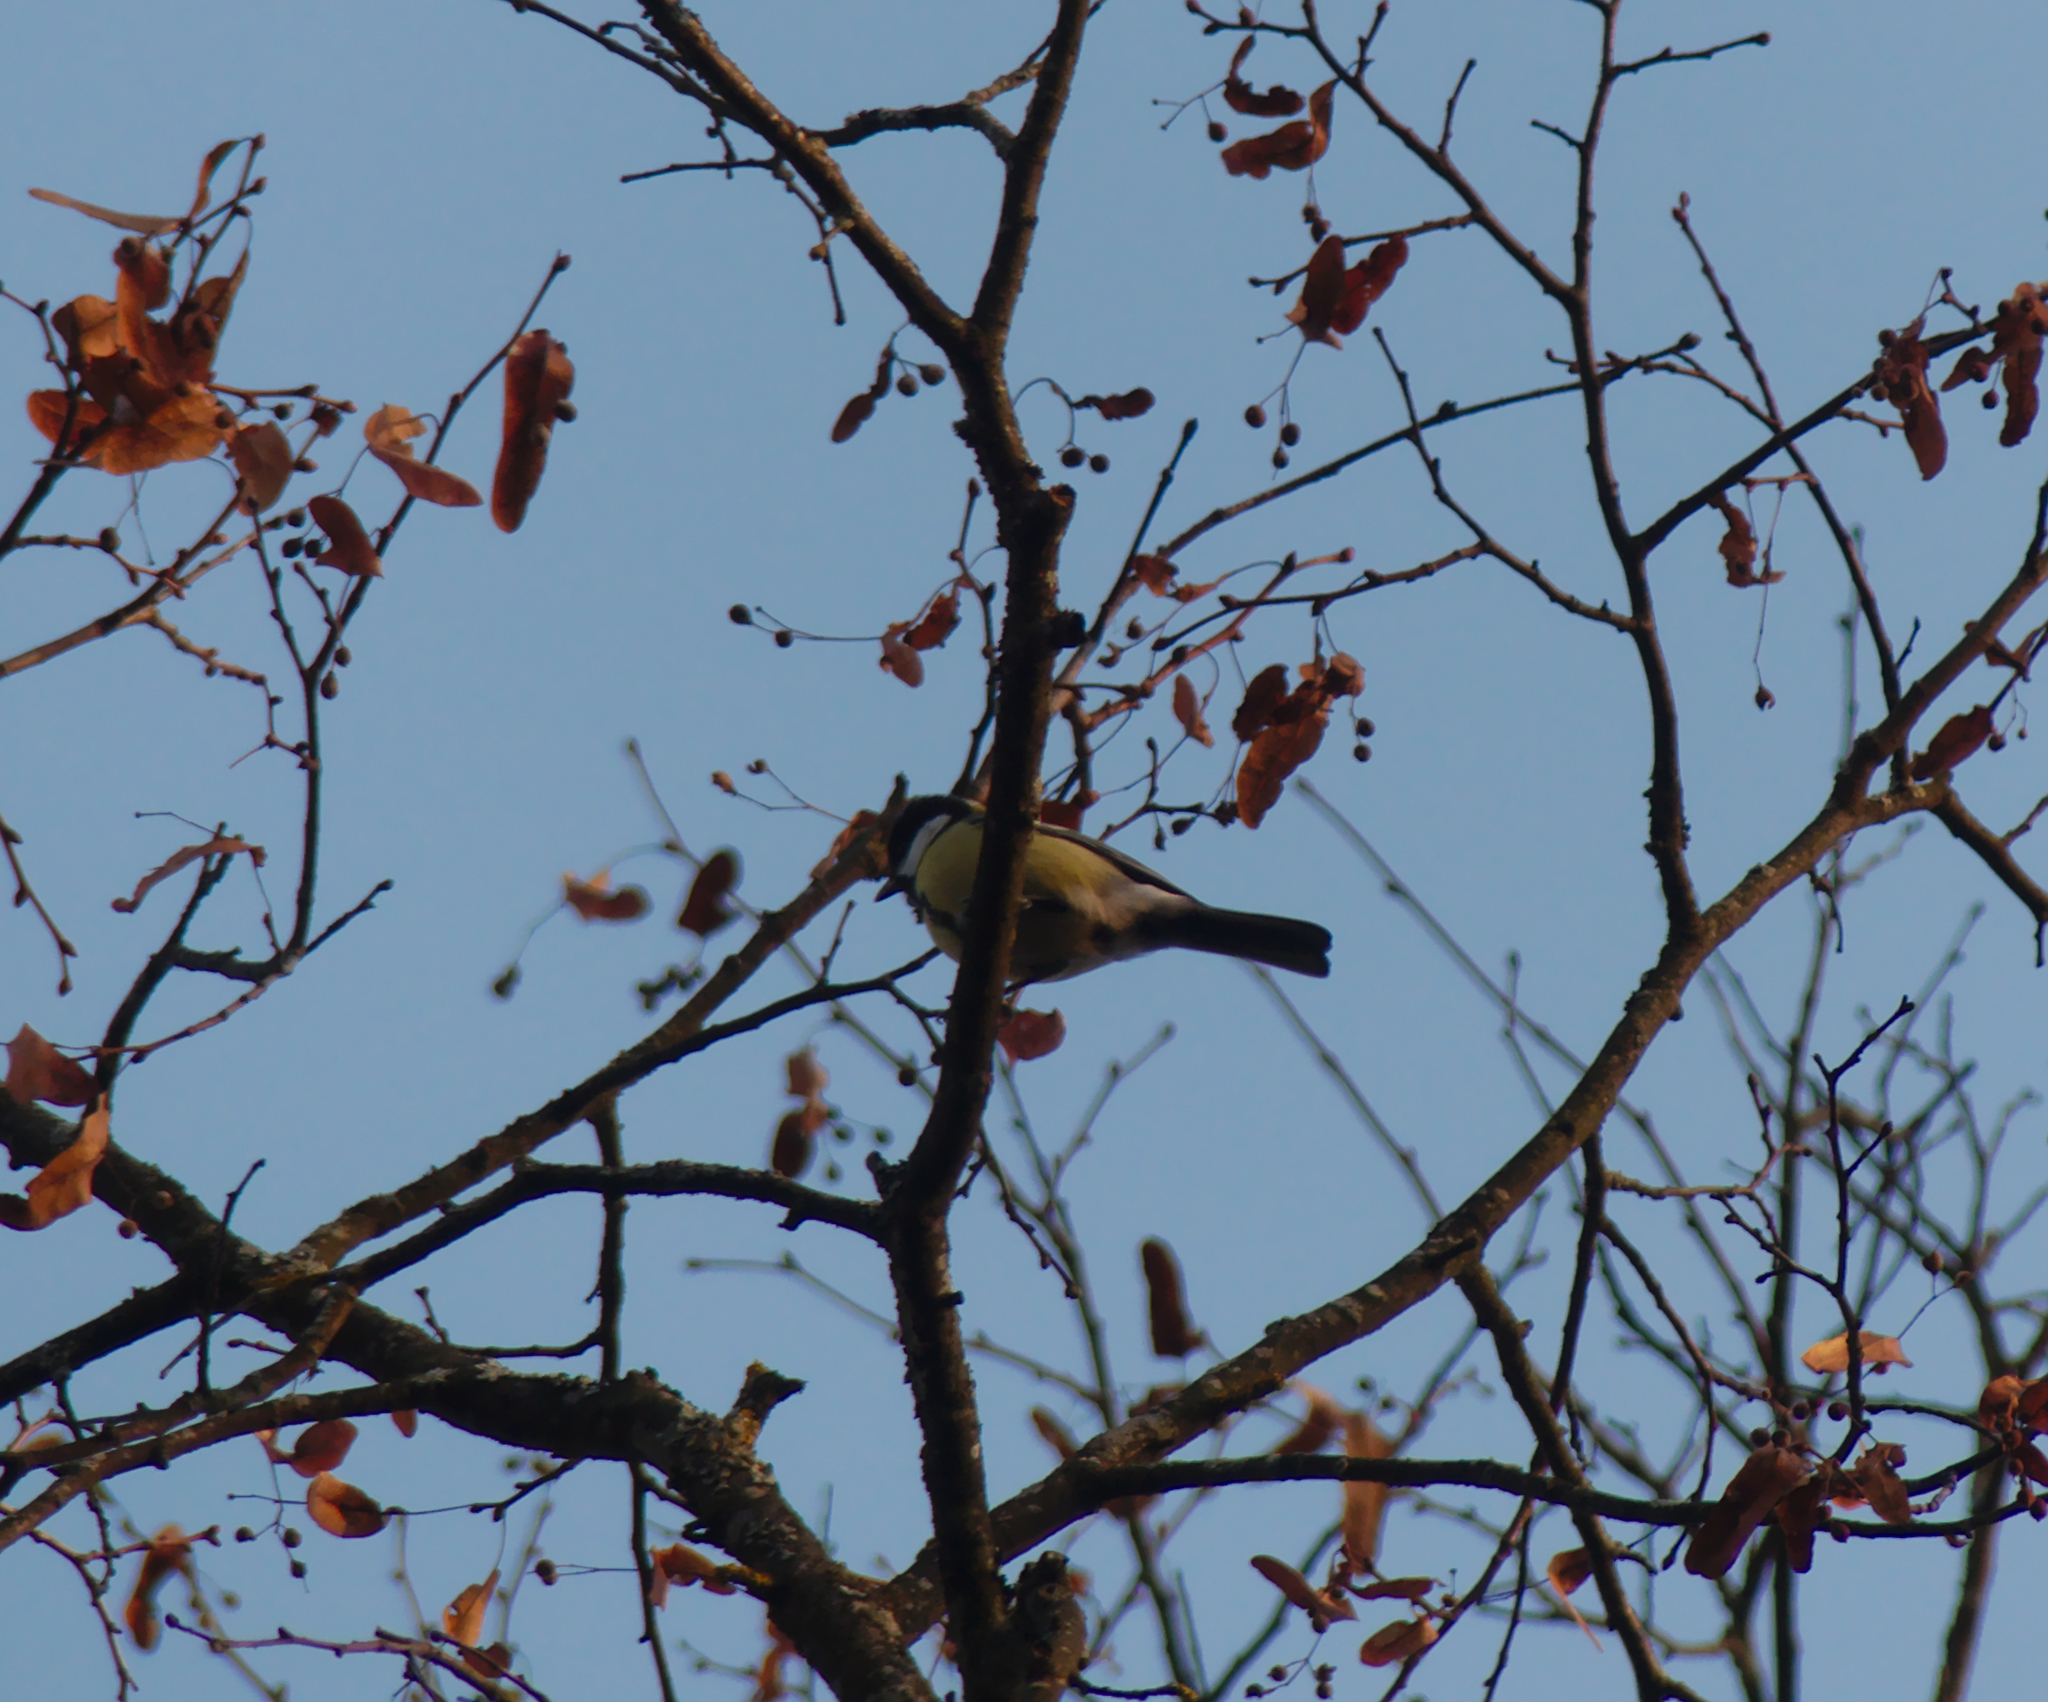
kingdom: Animalia
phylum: Chordata
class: Aves
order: Passeriformes
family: Paridae
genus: Parus
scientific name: Parus major
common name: Great tit
